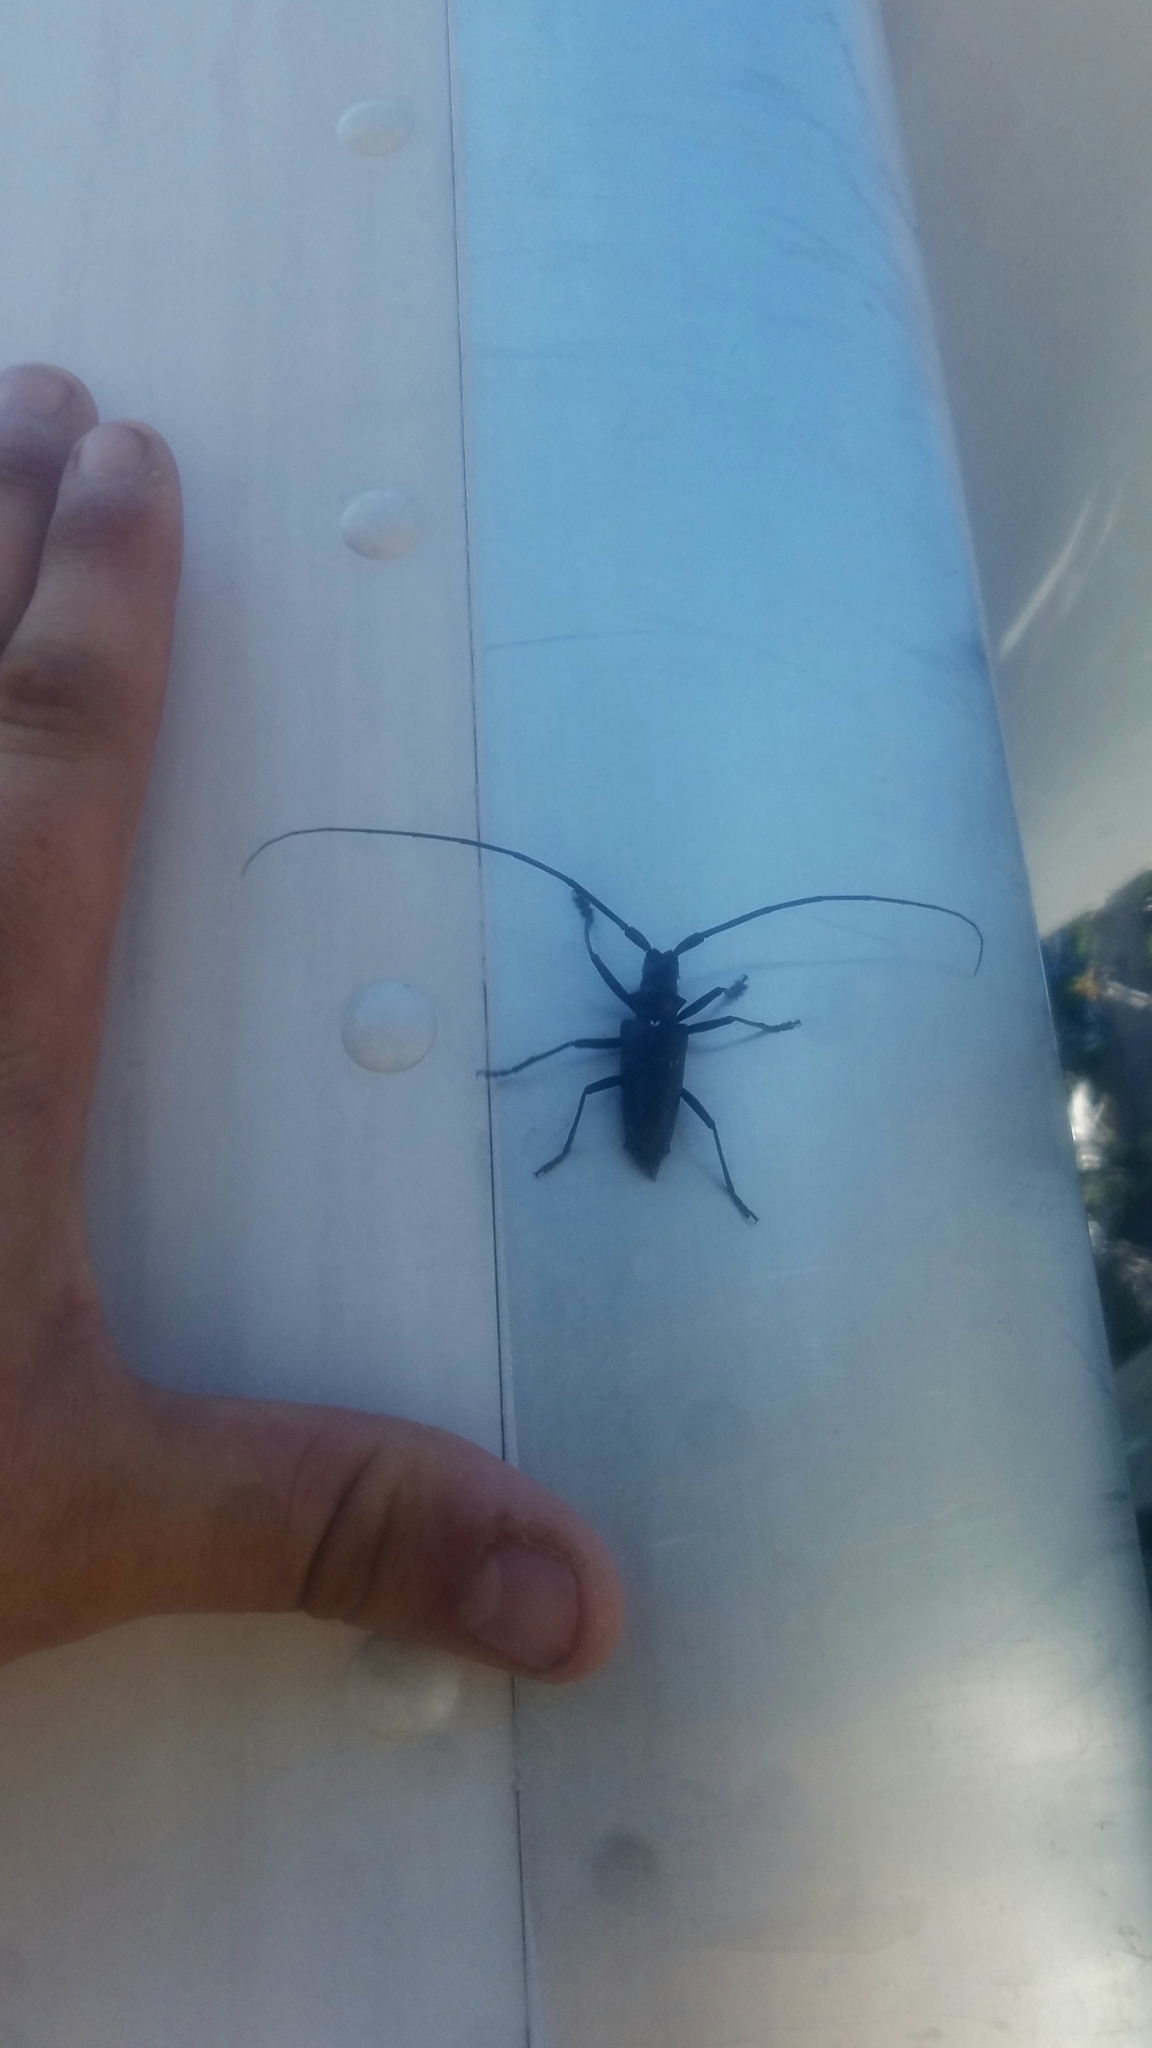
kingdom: Animalia
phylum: Arthropoda
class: Insecta
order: Coleoptera
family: Cerambycidae
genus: Monochamus
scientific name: Monochamus scutellatus
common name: White-spotted sawyer beetle
